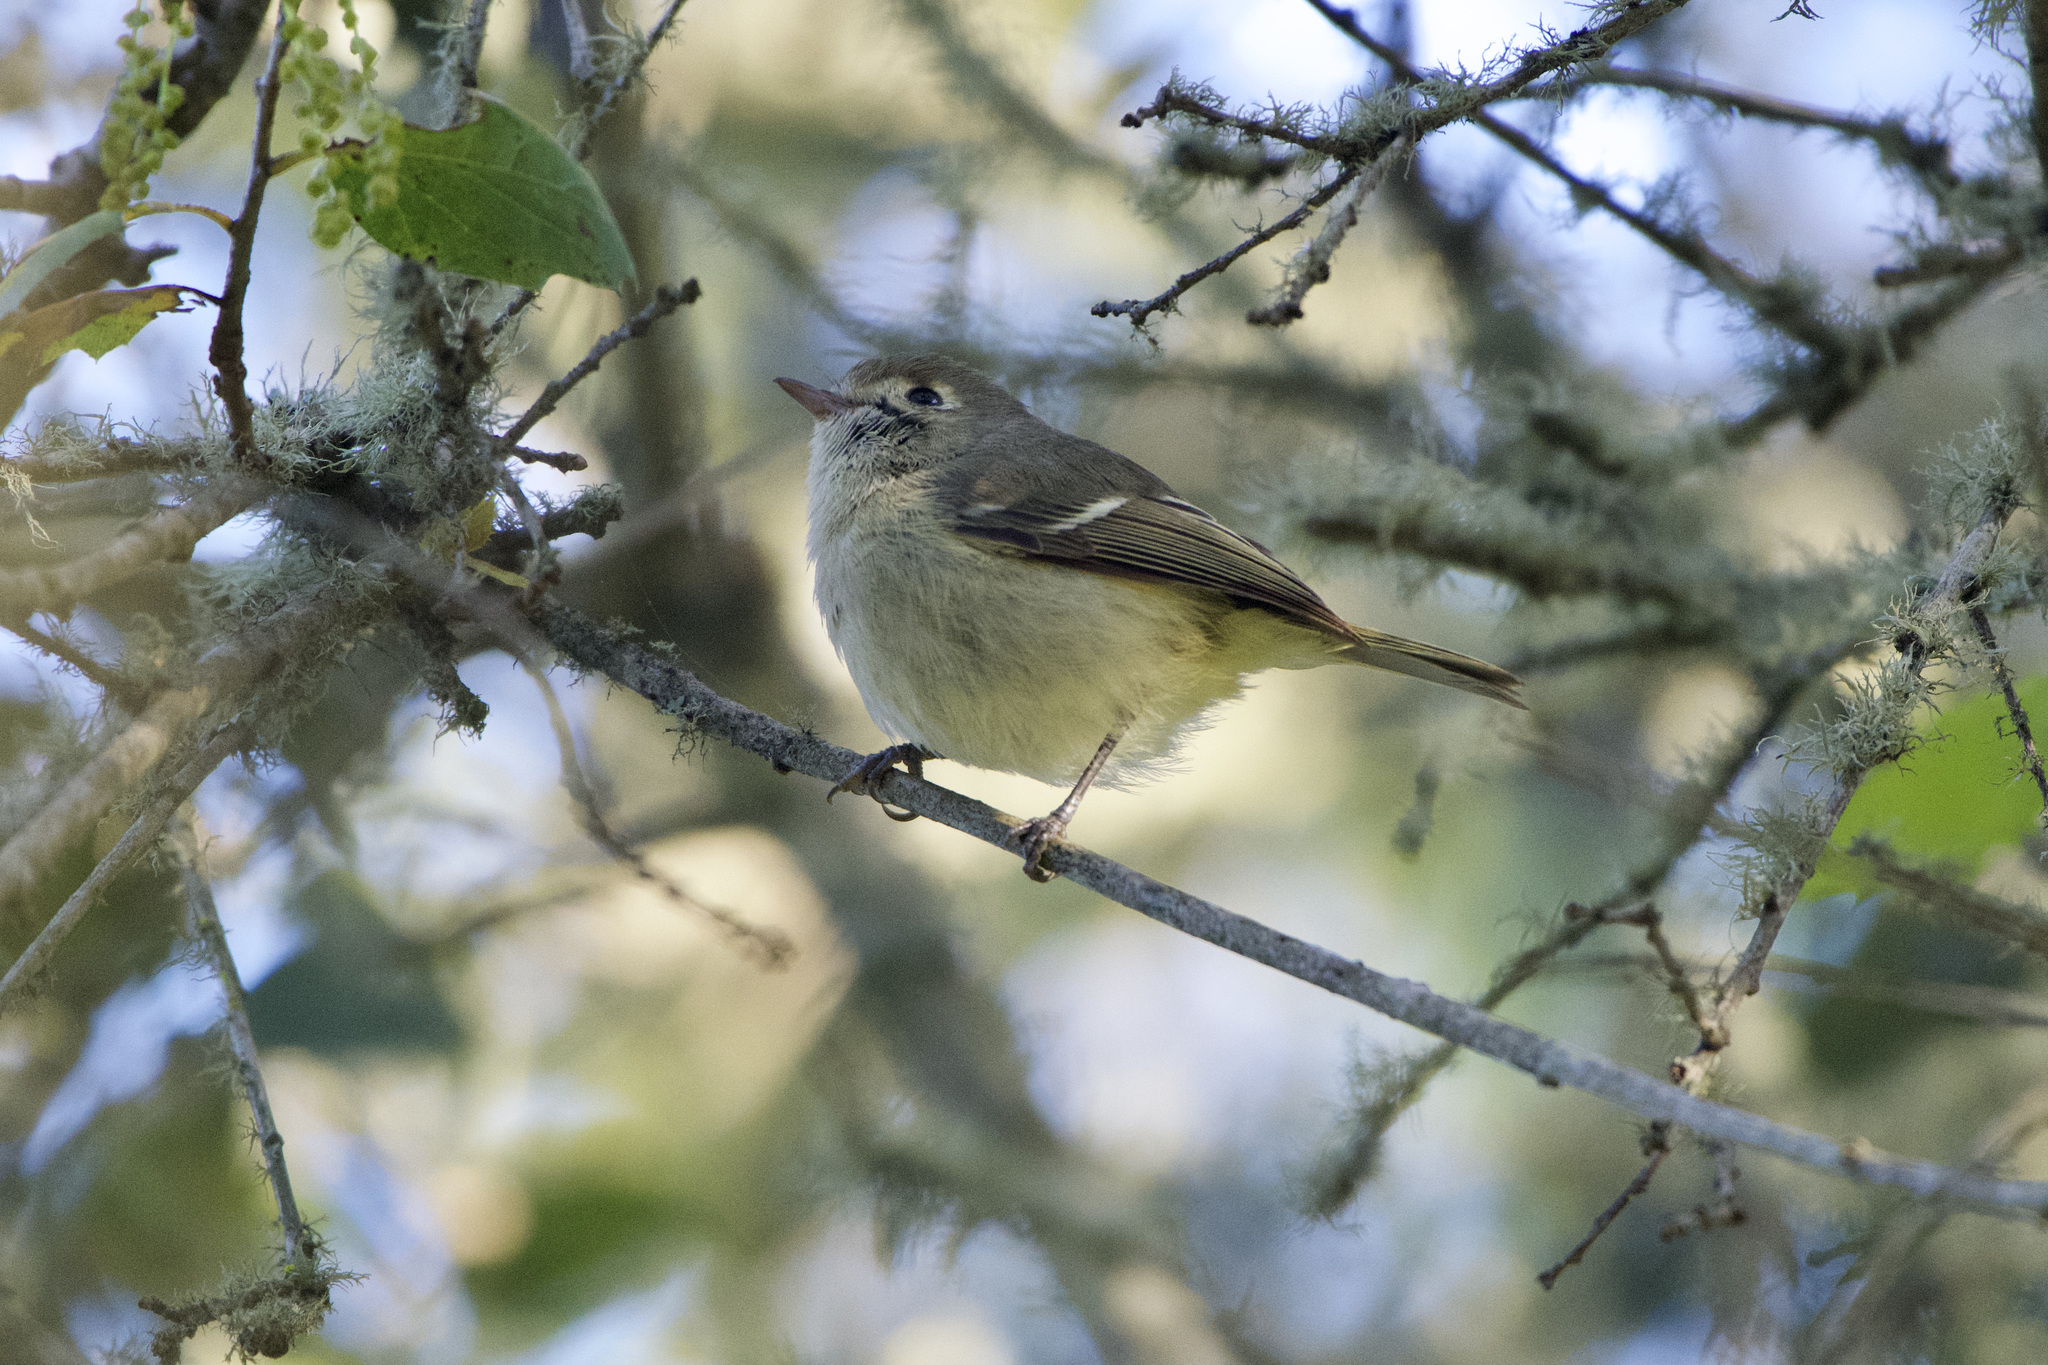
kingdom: Animalia
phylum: Chordata
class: Aves
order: Passeriformes
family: Vireonidae
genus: Vireo
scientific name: Vireo huttoni
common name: Hutton's vireo
